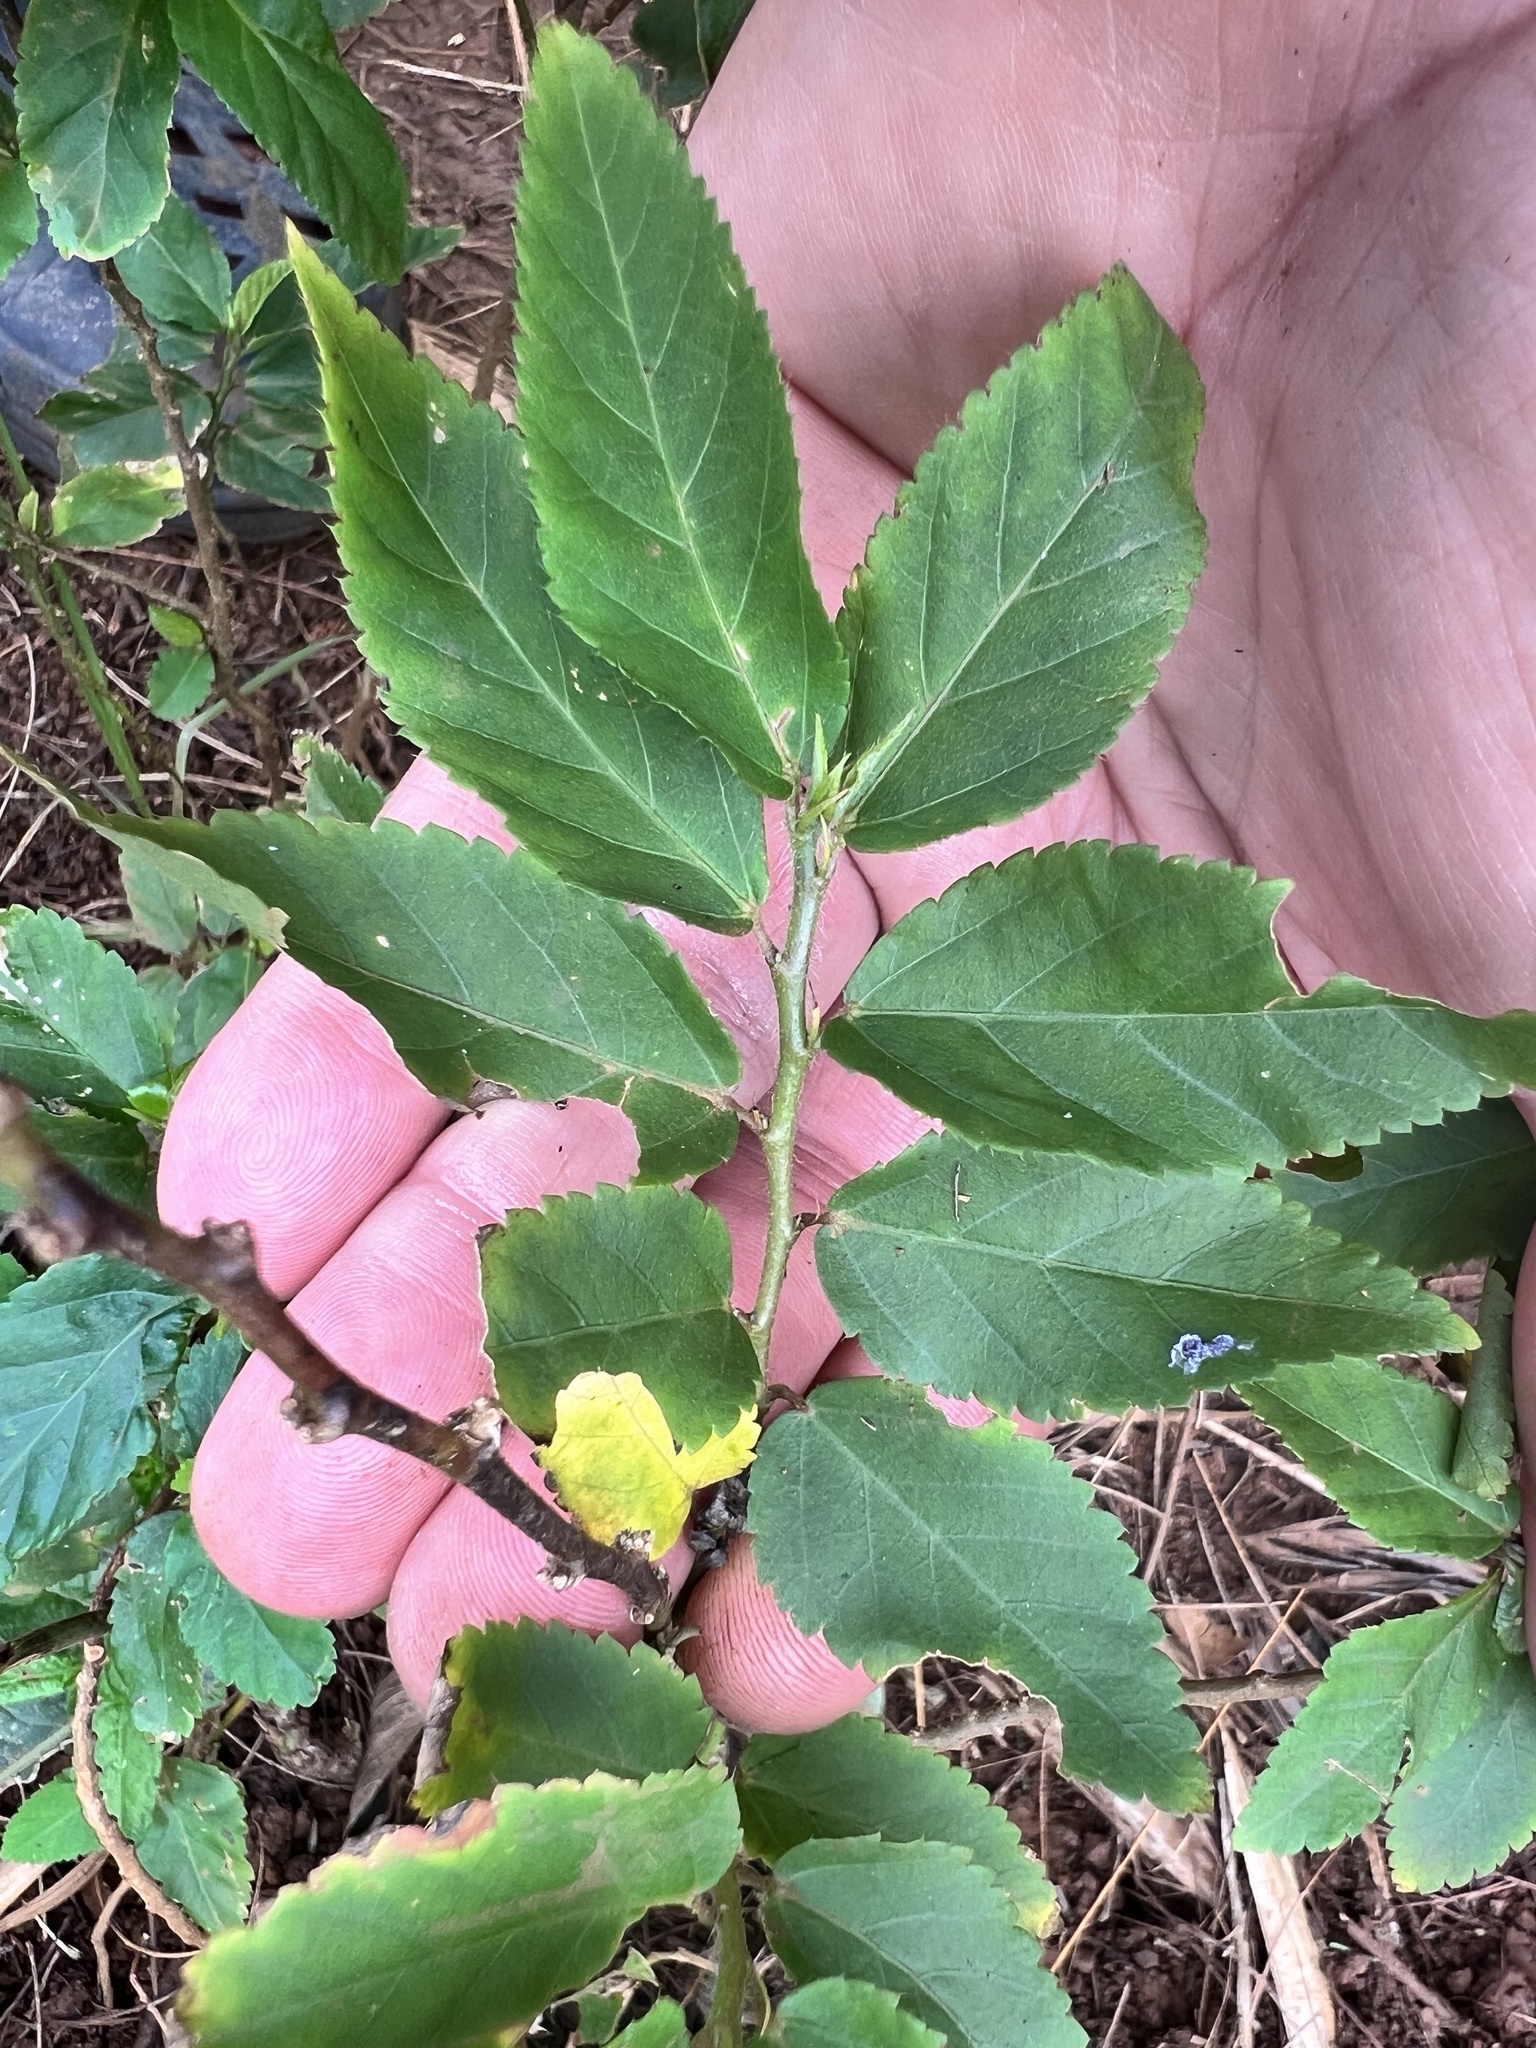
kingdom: Plantae
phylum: Tracheophyta
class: Magnoliopsida
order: Malvales
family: Malvaceae
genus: Sida
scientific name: Sida acuta
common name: Common wireweed
